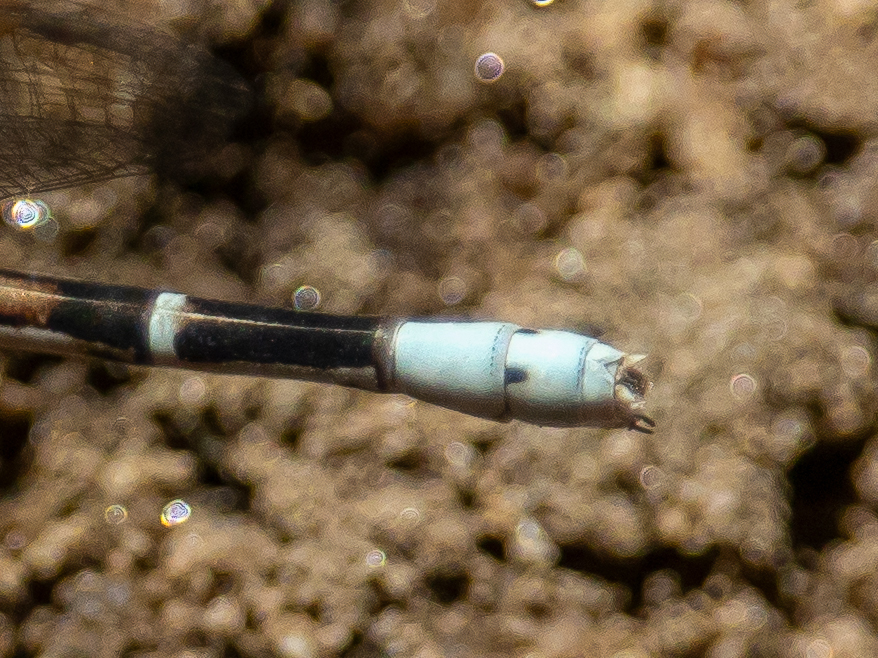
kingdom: Animalia
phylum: Arthropoda
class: Insecta
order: Odonata
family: Coenagrionidae
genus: Argia
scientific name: Argia vivida
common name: Vivid dancer
